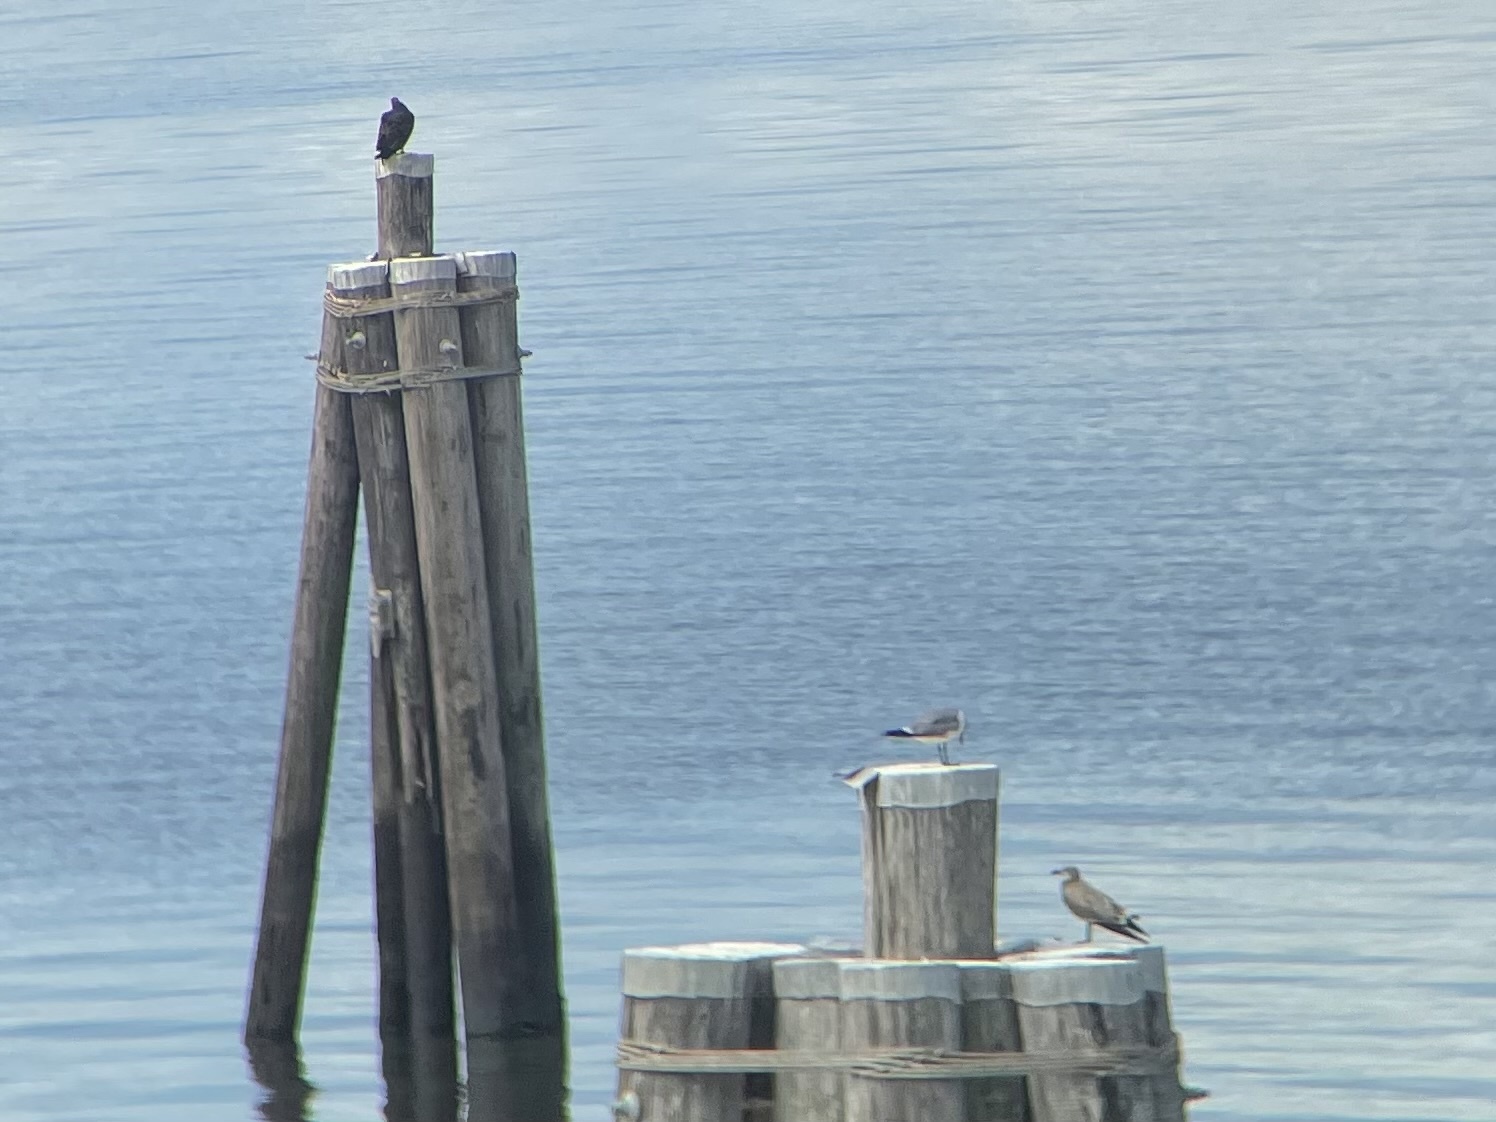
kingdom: Animalia
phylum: Chordata
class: Aves
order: Charadriiformes
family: Laridae
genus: Leucophaeus
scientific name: Leucophaeus atricilla
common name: Laughing gull
